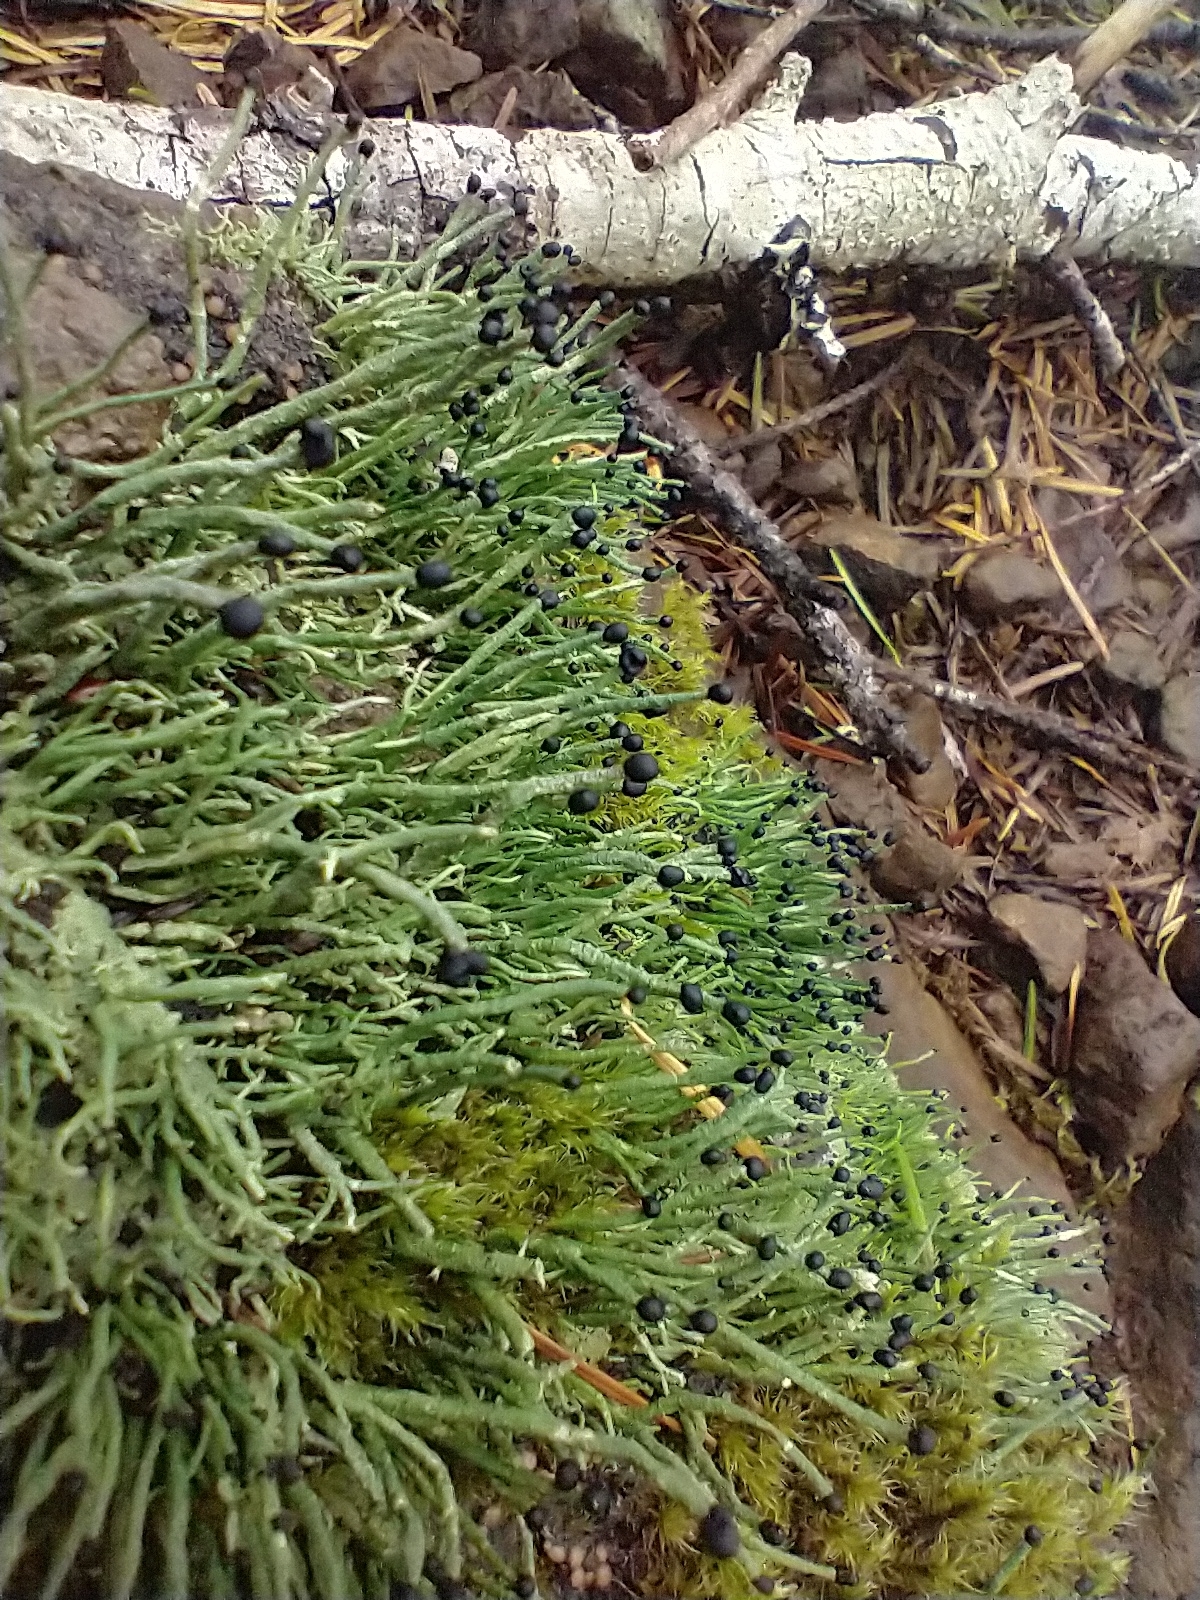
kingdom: Fungi
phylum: Ascomycota
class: Lecanoromycetes
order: Lecanorales
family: Cladoniaceae
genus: Pilophorus
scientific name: Pilophorus acicularis
